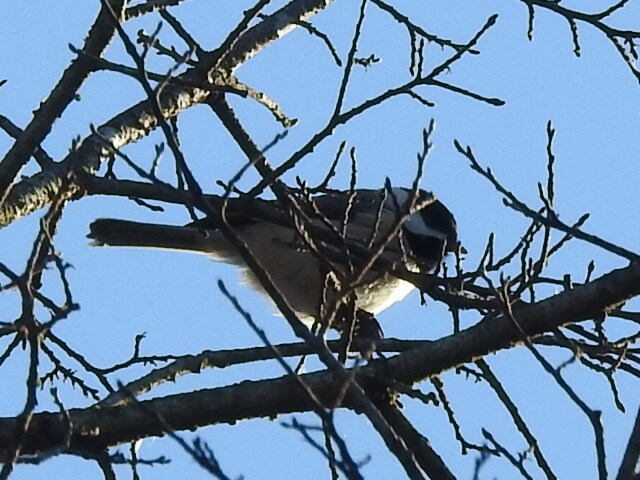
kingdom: Animalia
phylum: Chordata
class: Aves
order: Passeriformes
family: Paridae
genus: Poecile
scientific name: Poecile carolinensis
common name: Carolina chickadee
